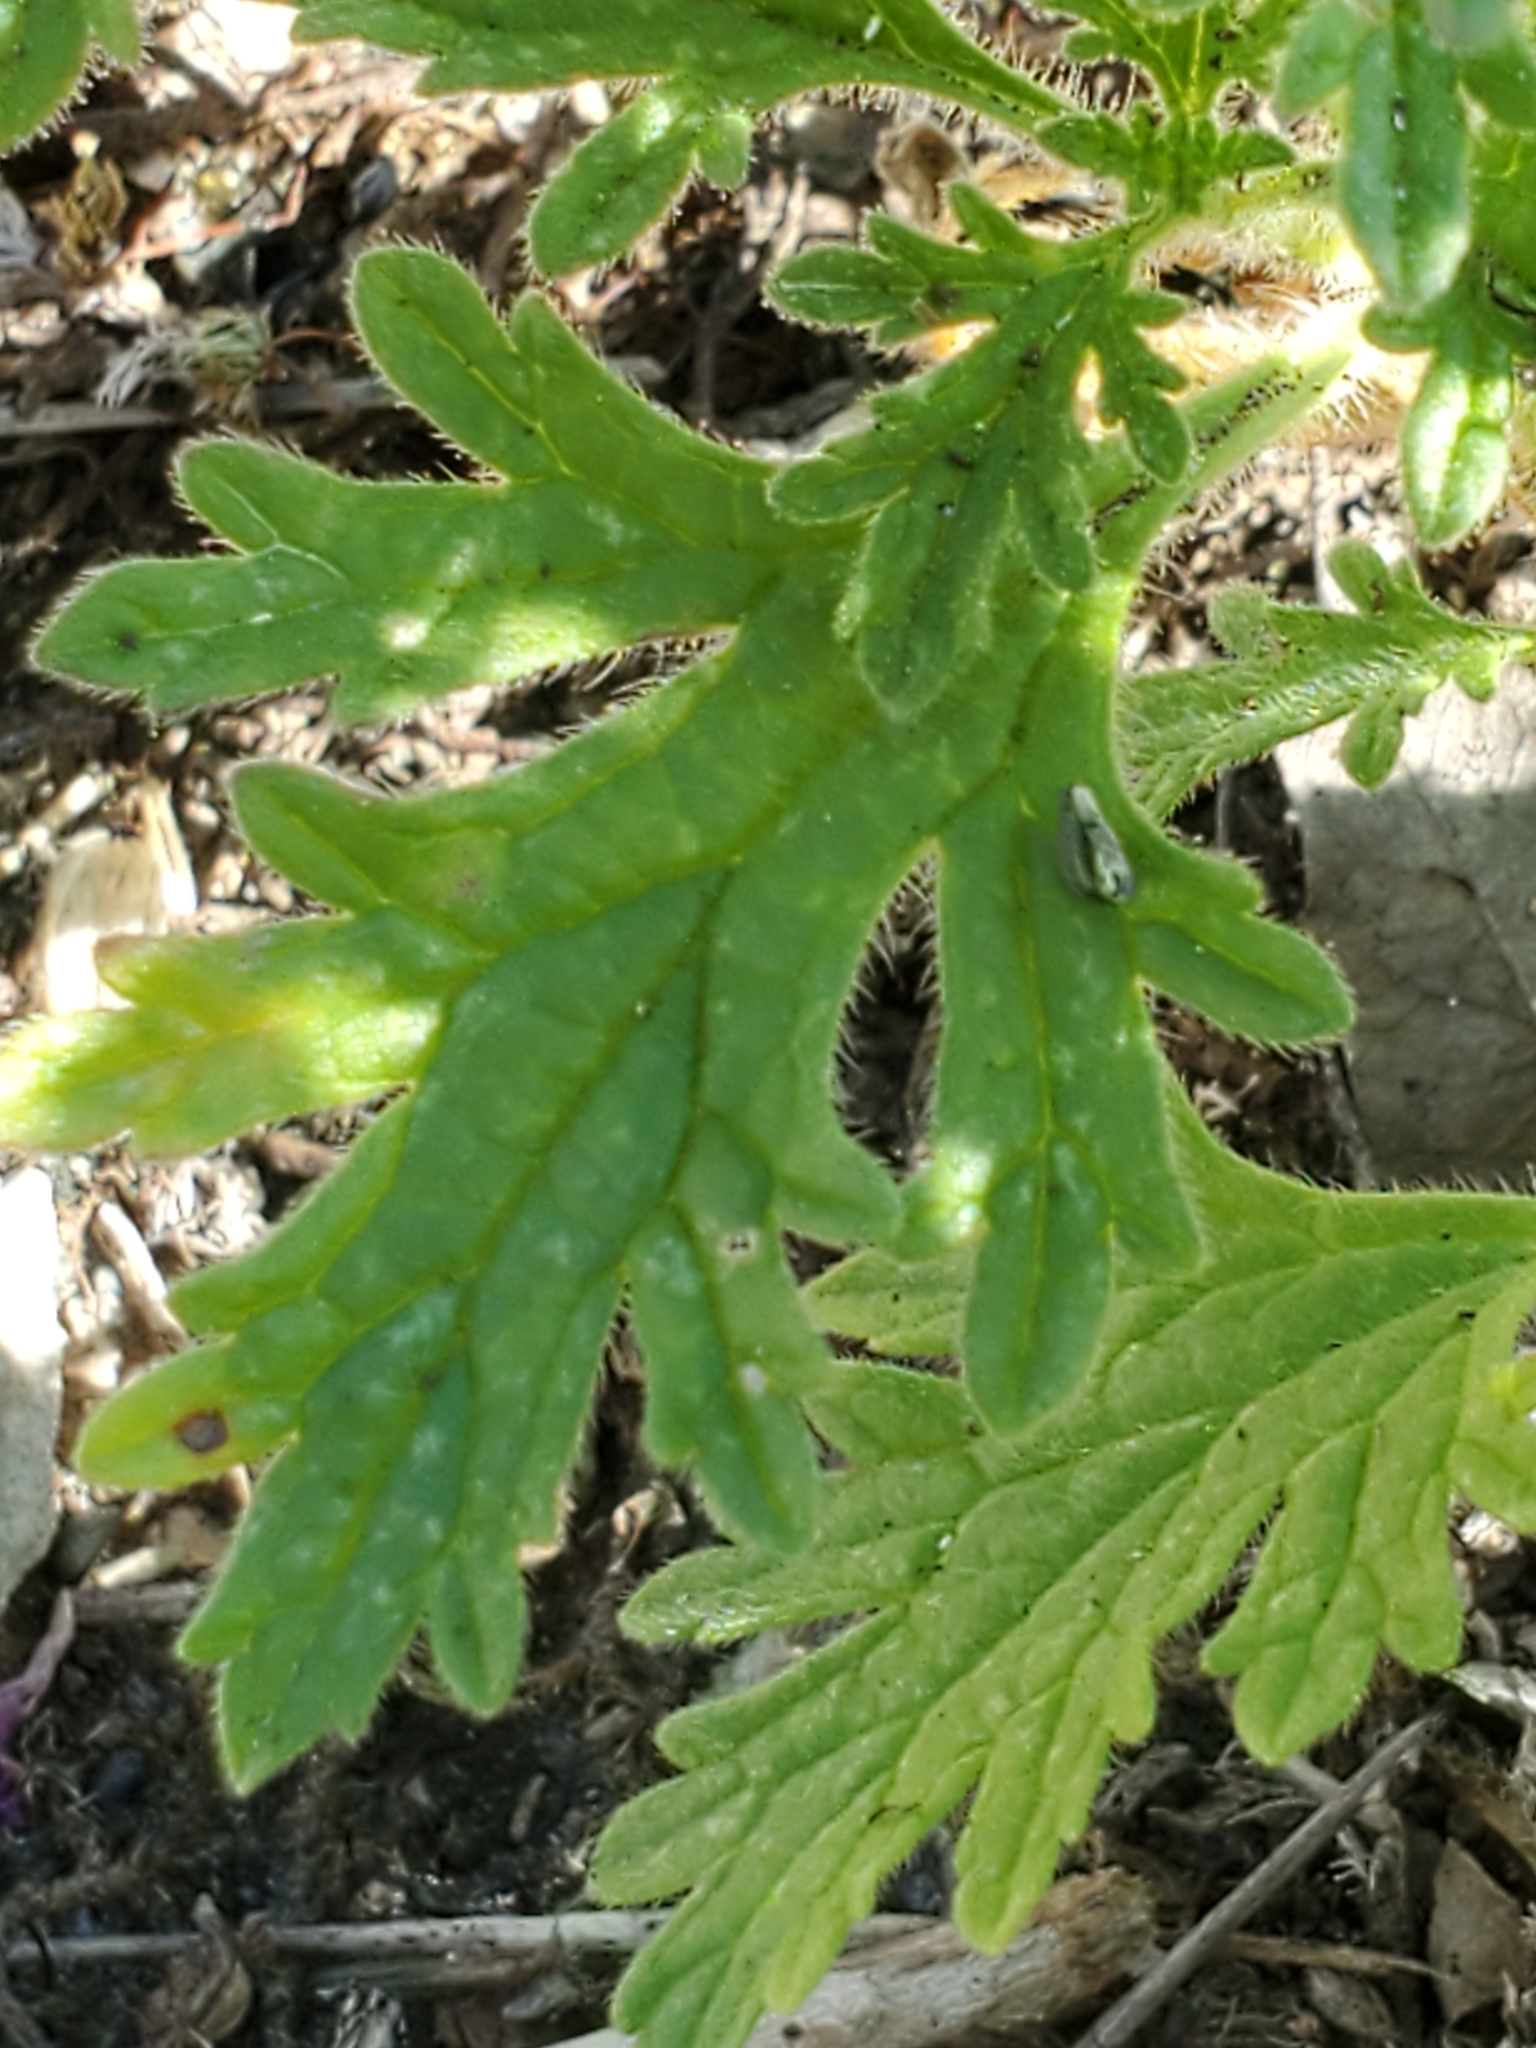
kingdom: Plantae
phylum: Tracheophyta
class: Magnoliopsida
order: Lamiales
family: Verbenaceae
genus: Verbena
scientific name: Verbena tumidula
